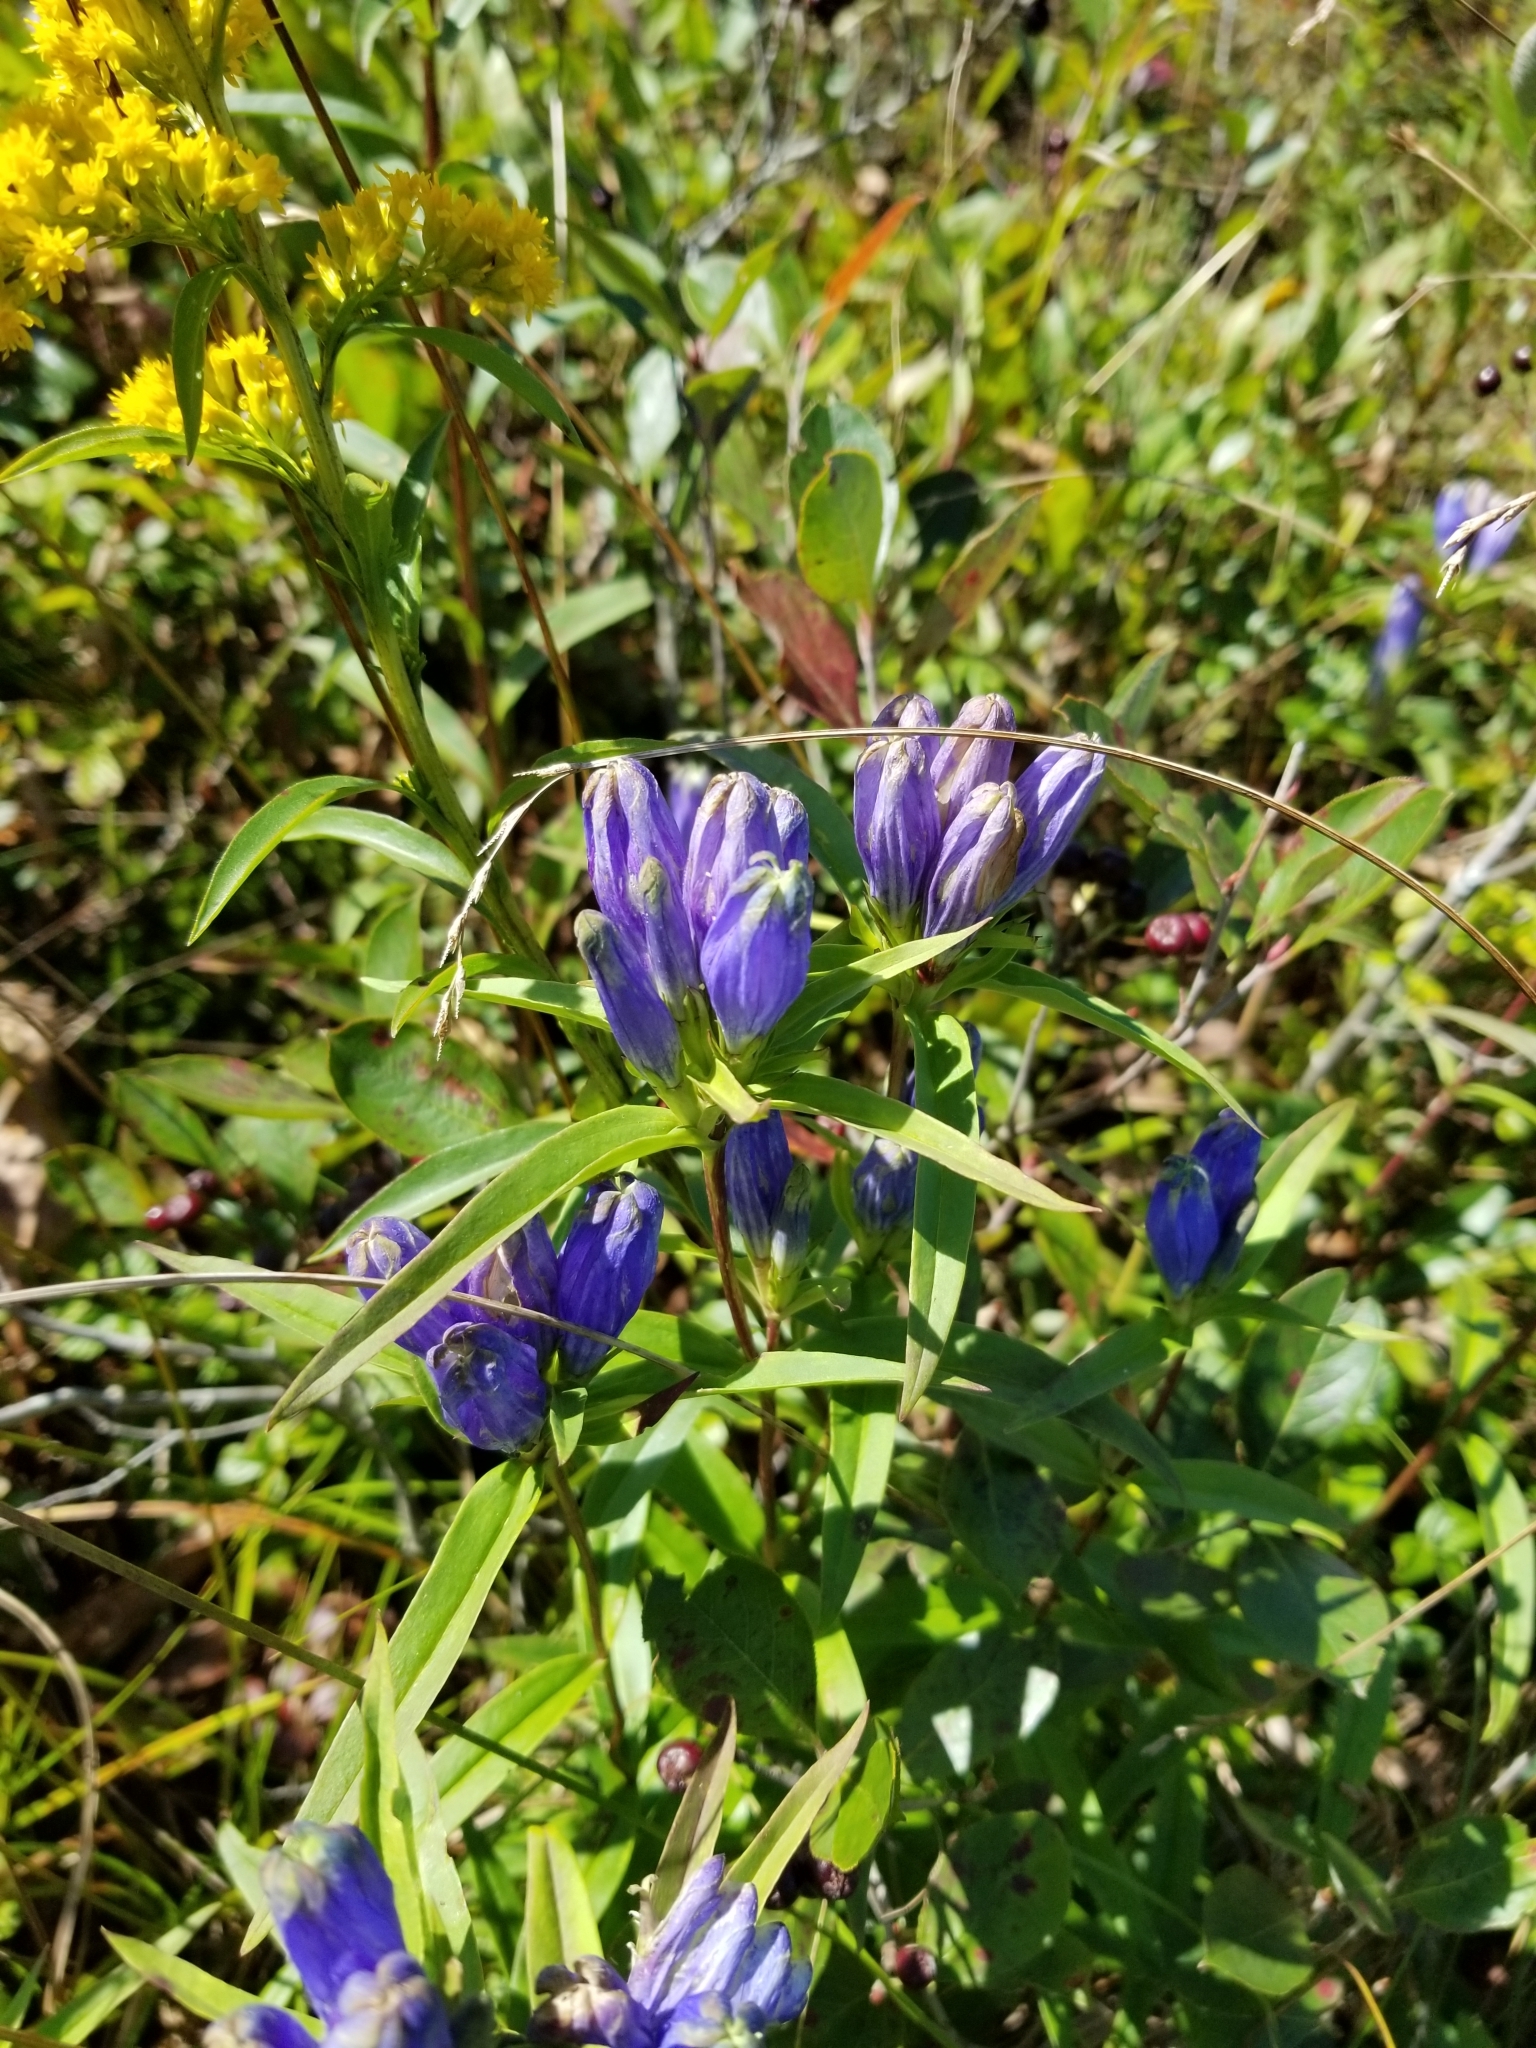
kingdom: Plantae
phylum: Tracheophyta
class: Magnoliopsida
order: Gentianales
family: Gentianaceae
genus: Gentiana
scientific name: Gentiana linearis
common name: Bastard gentian
